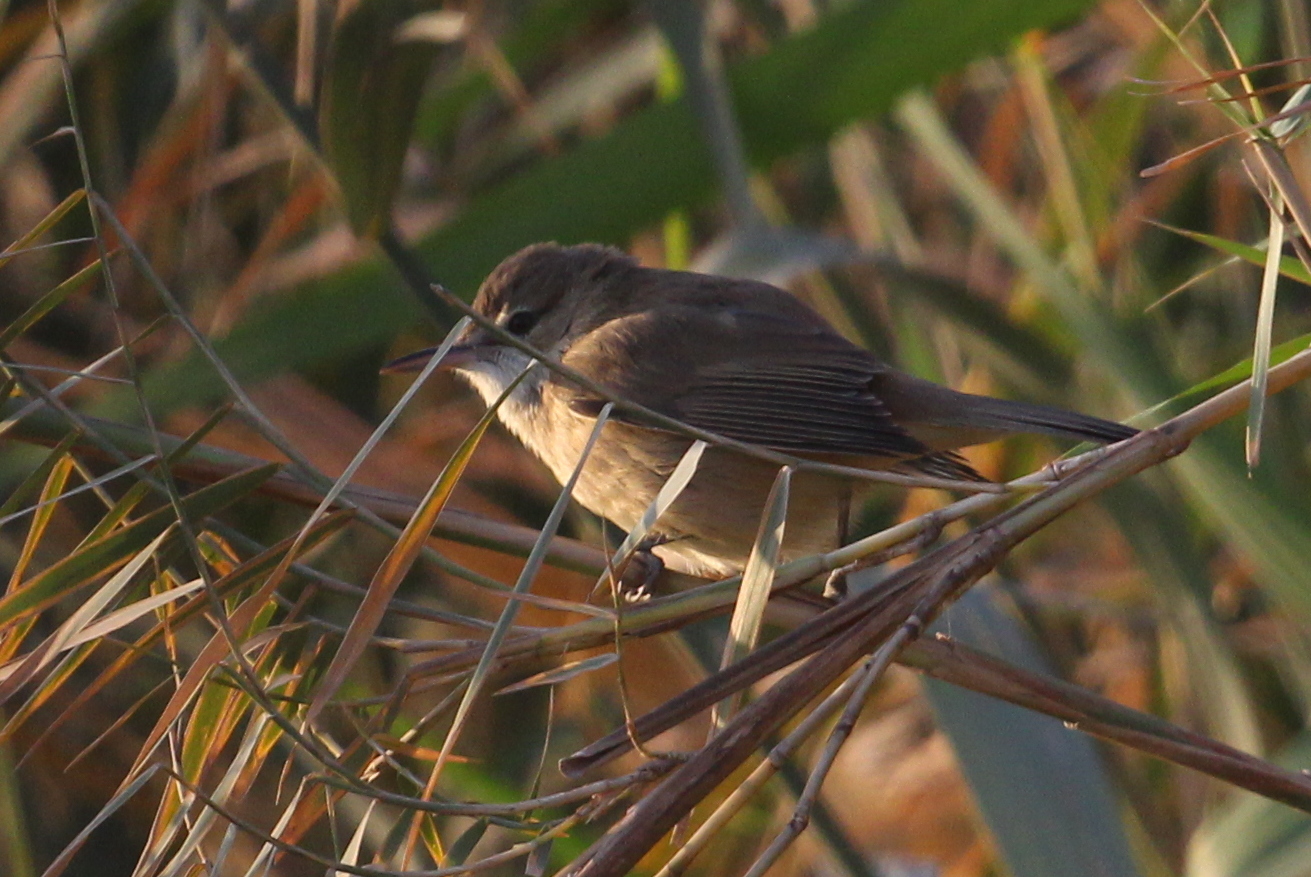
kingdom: Animalia
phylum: Chordata
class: Aves
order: Passeriformes
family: Acrocephalidae
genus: Acrocephalus
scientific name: Acrocephalus stentoreus
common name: Clamorous reed warbler
